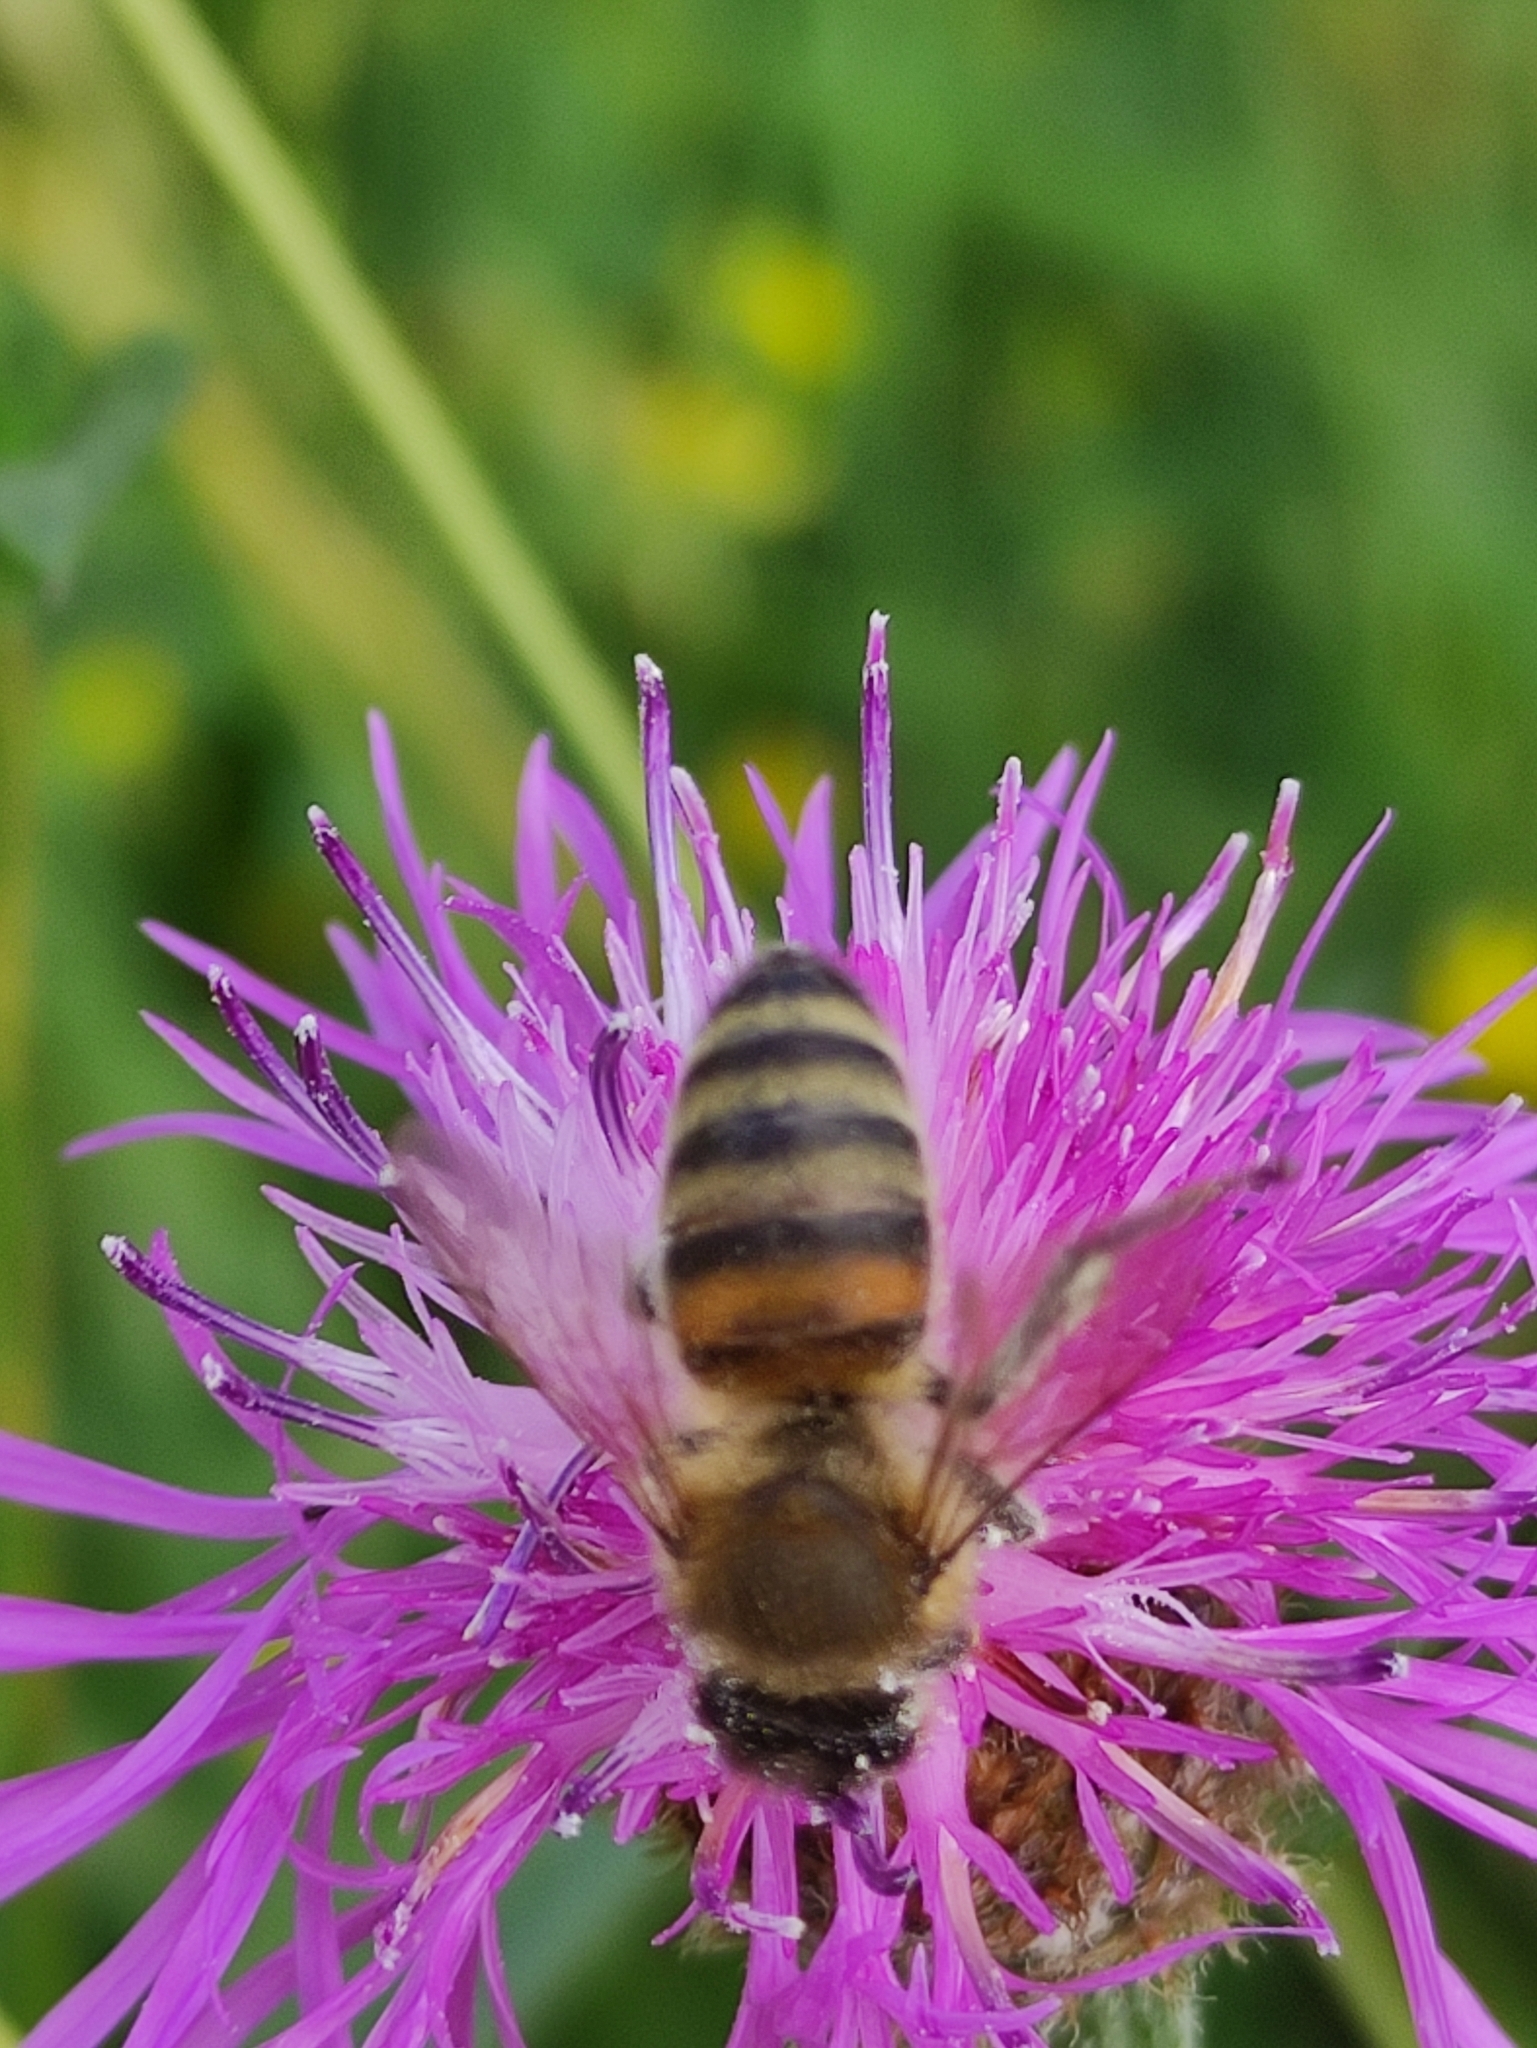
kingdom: Animalia
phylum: Arthropoda
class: Insecta
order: Hymenoptera
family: Apidae
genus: Apis
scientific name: Apis mellifera
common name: Honey bee
